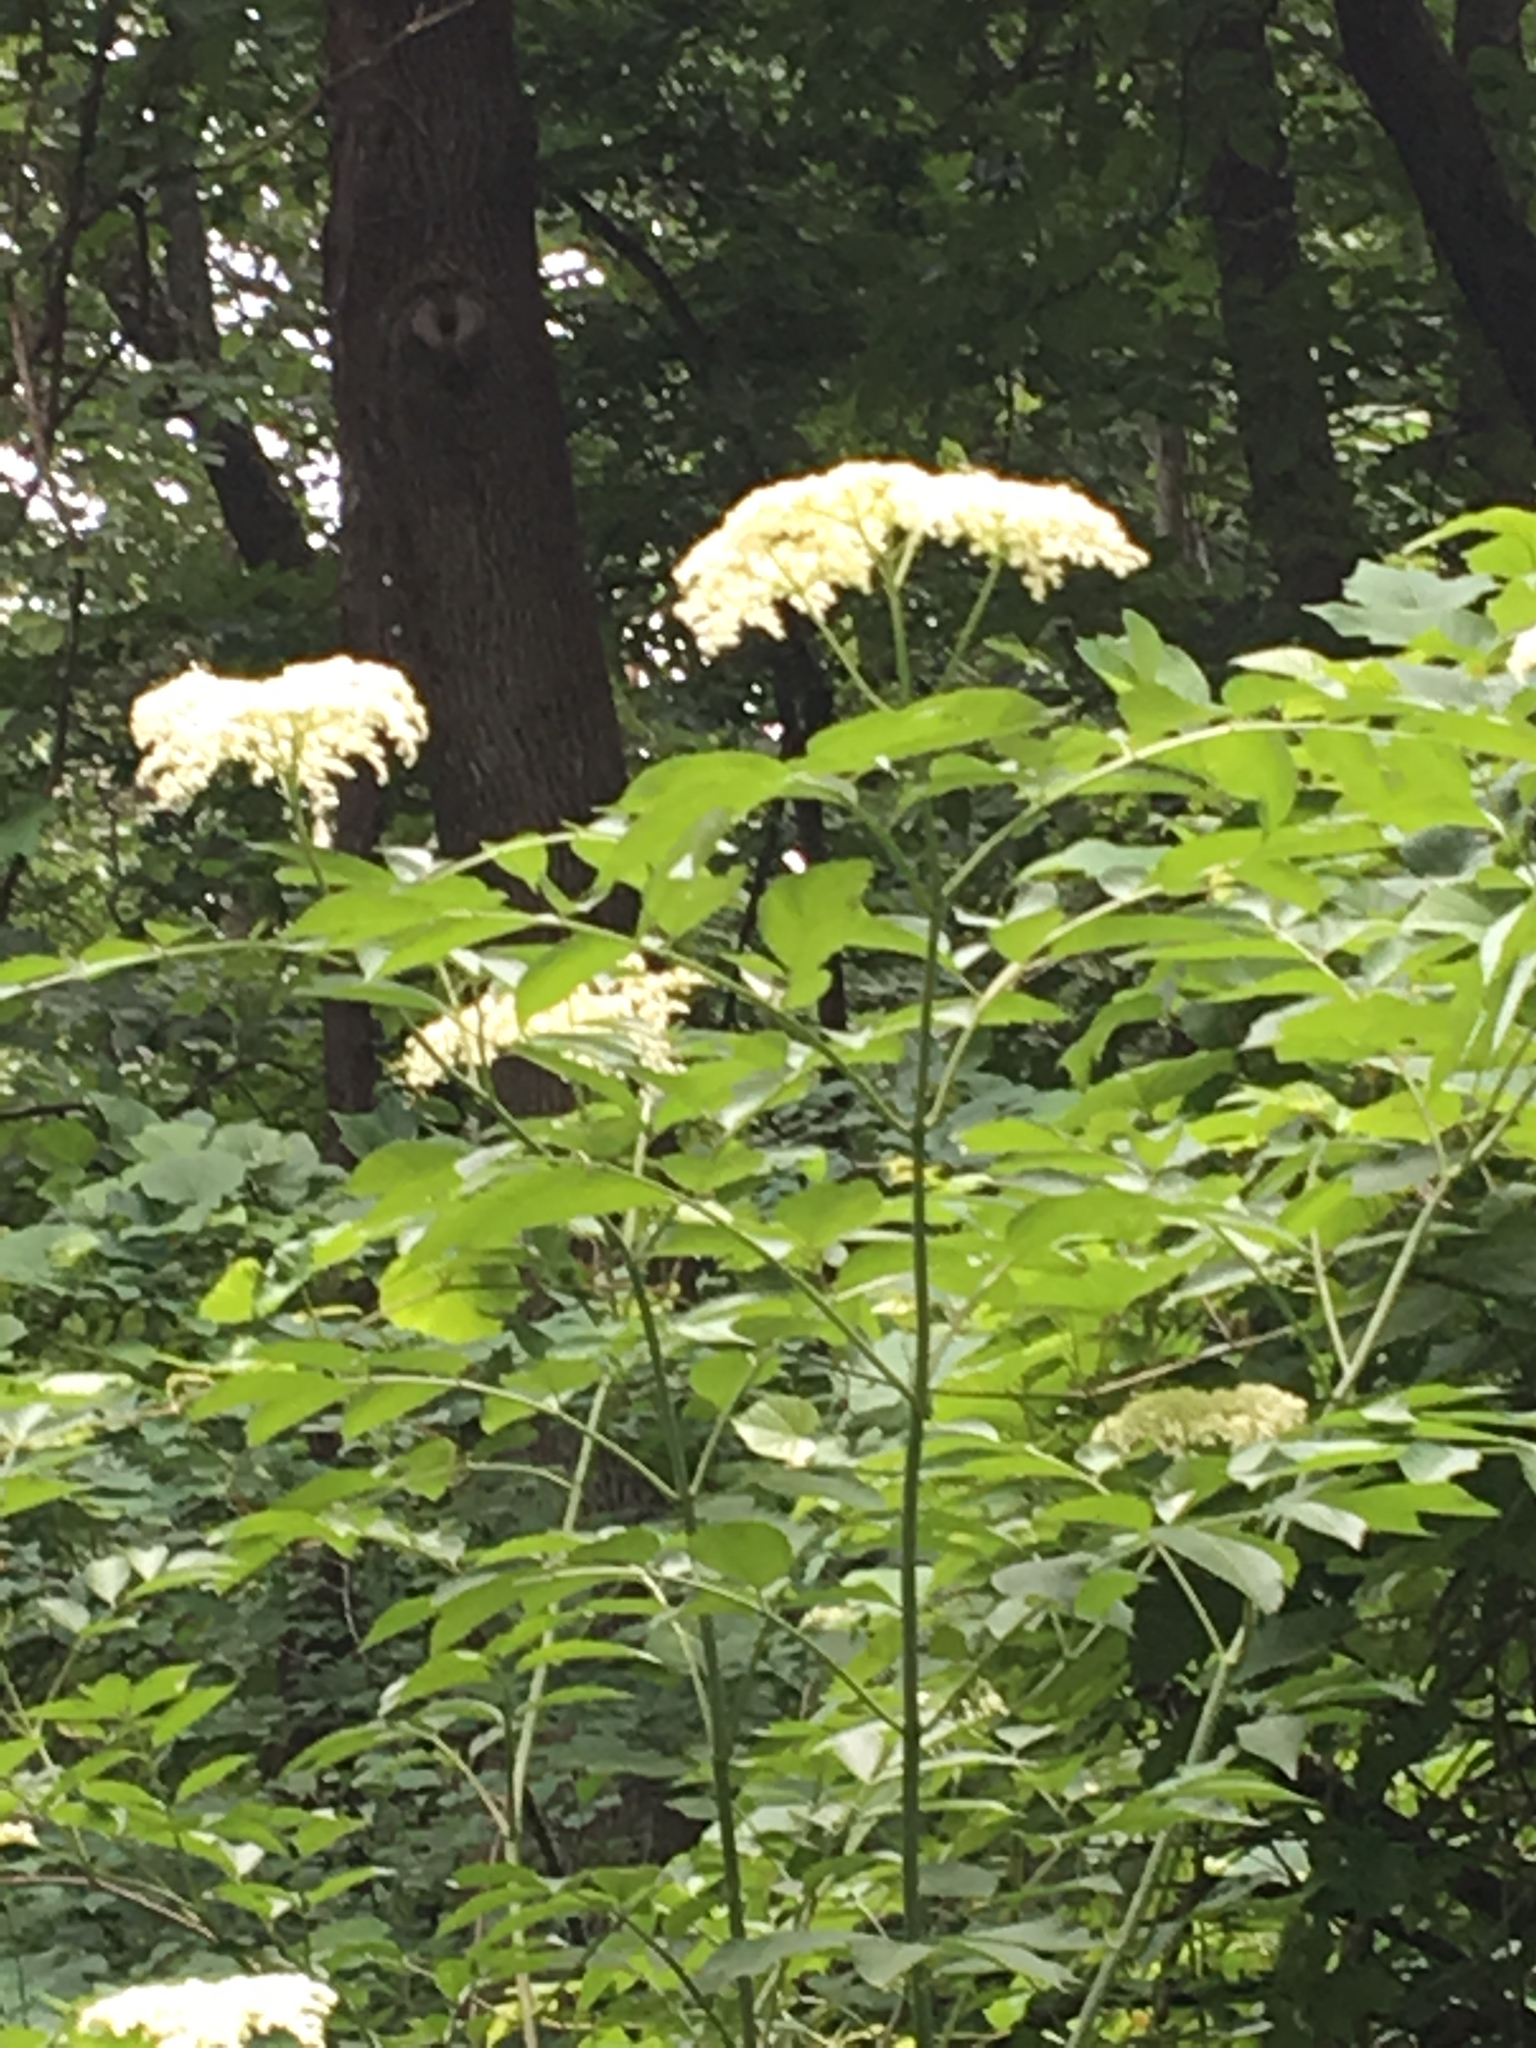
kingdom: Plantae
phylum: Tracheophyta
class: Magnoliopsida
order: Dipsacales
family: Viburnaceae
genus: Sambucus
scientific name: Sambucus canadensis
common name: American elder
